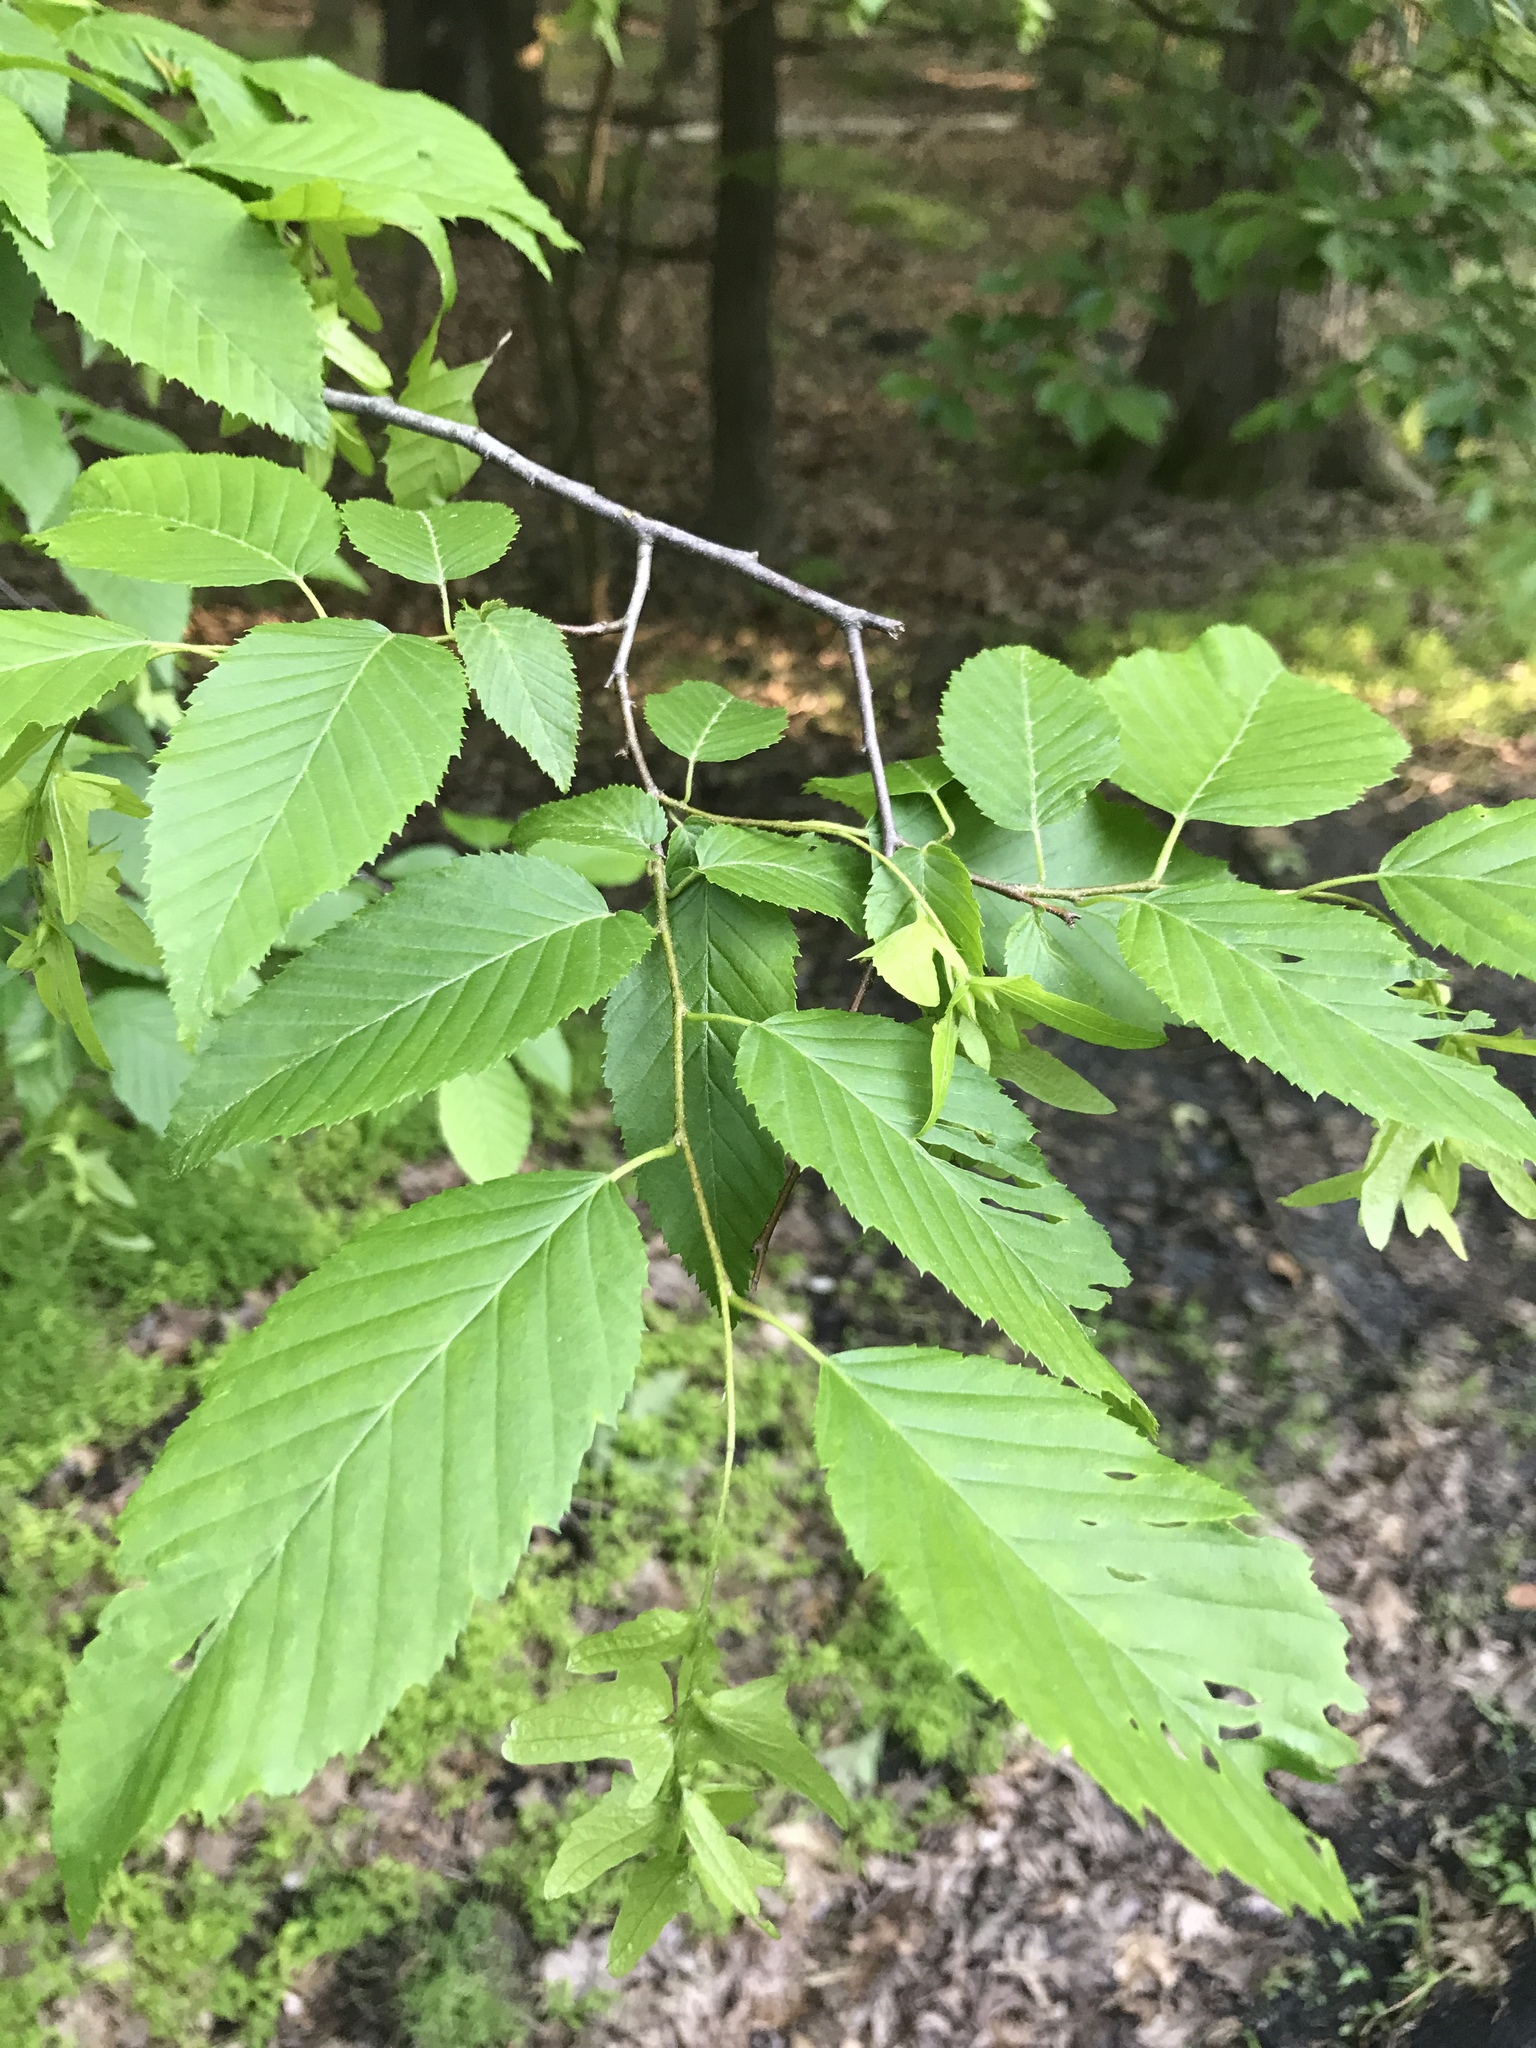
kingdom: Plantae
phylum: Tracheophyta
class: Magnoliopsida
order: Fagales
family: Betulaceae
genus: Carpinus
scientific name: Carpinus caroliniana
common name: American hornbeam
